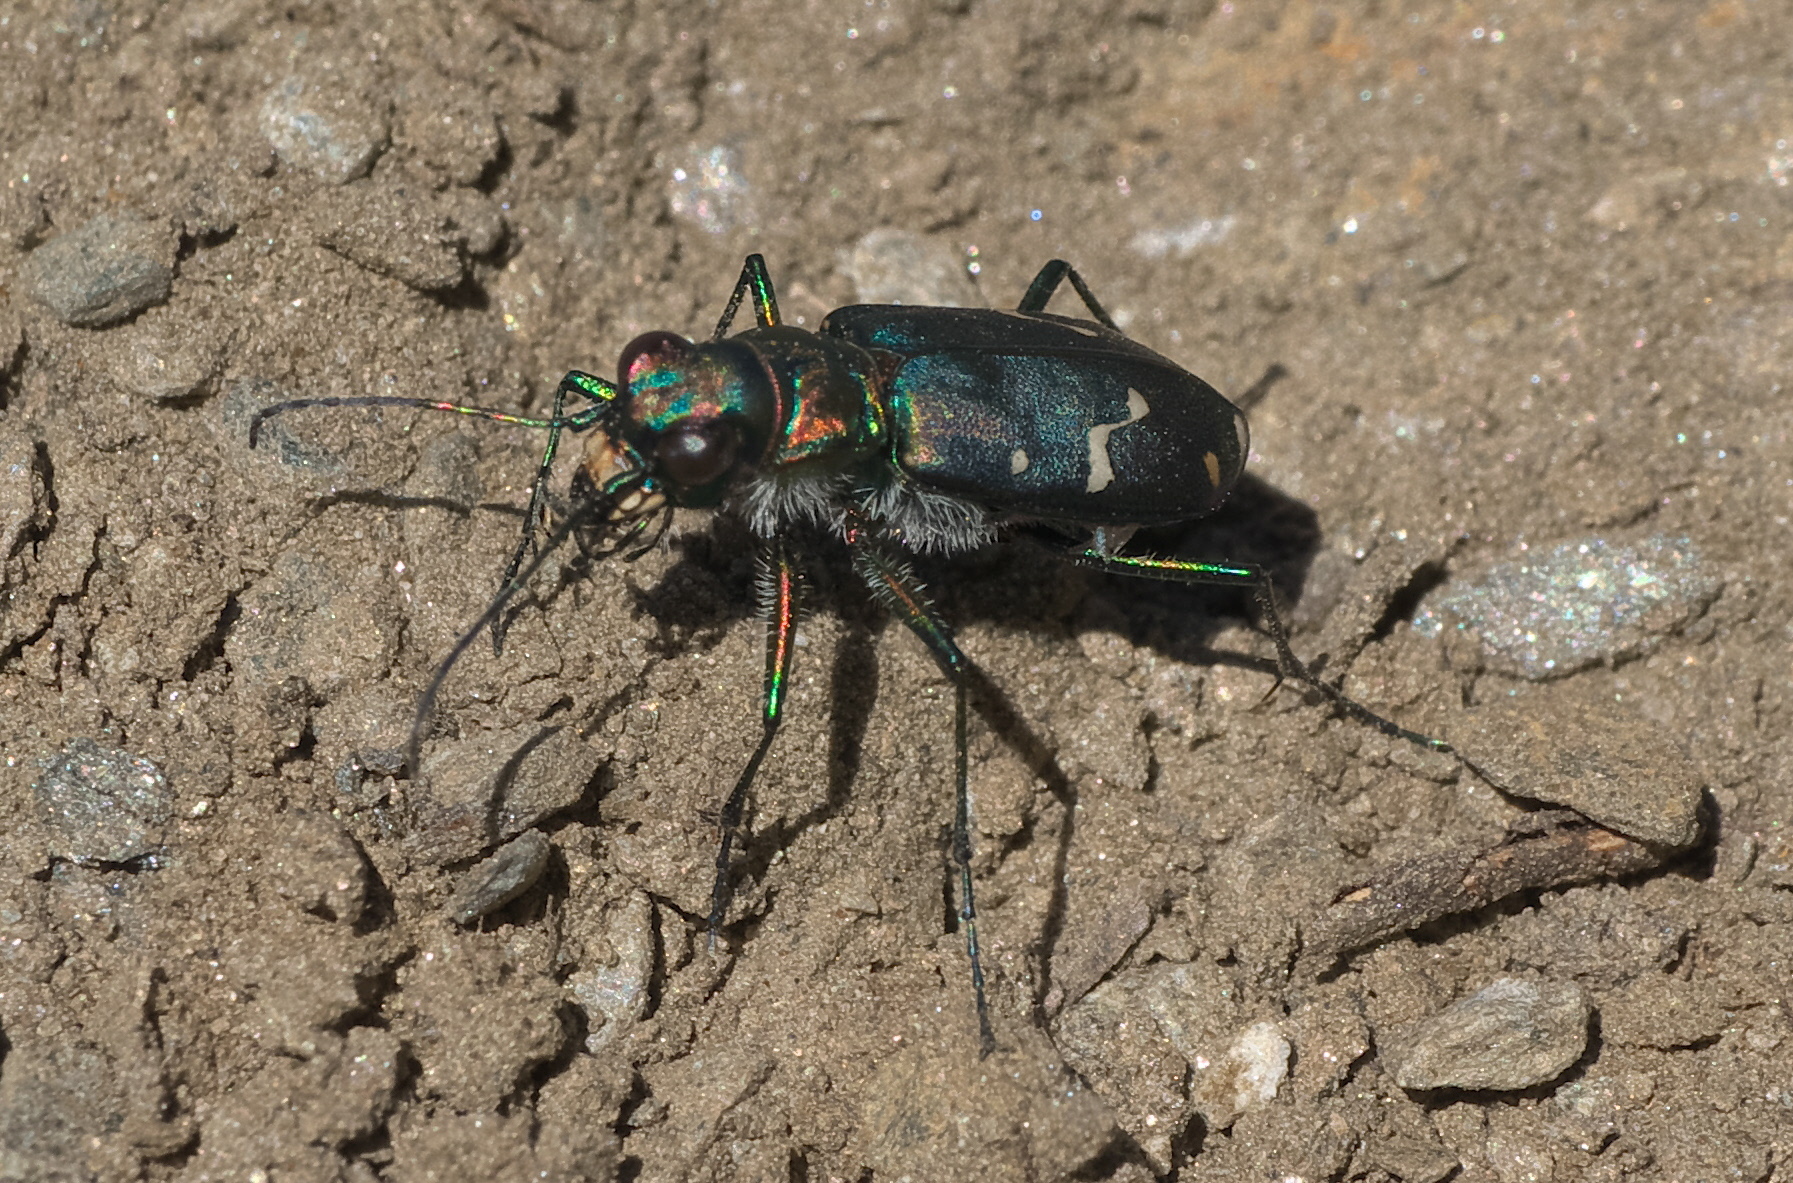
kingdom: Animalia
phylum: Arthropoda
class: Insecta
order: Coleoptera
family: Carabidae
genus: Cicindela
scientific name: Cicindela depressula
